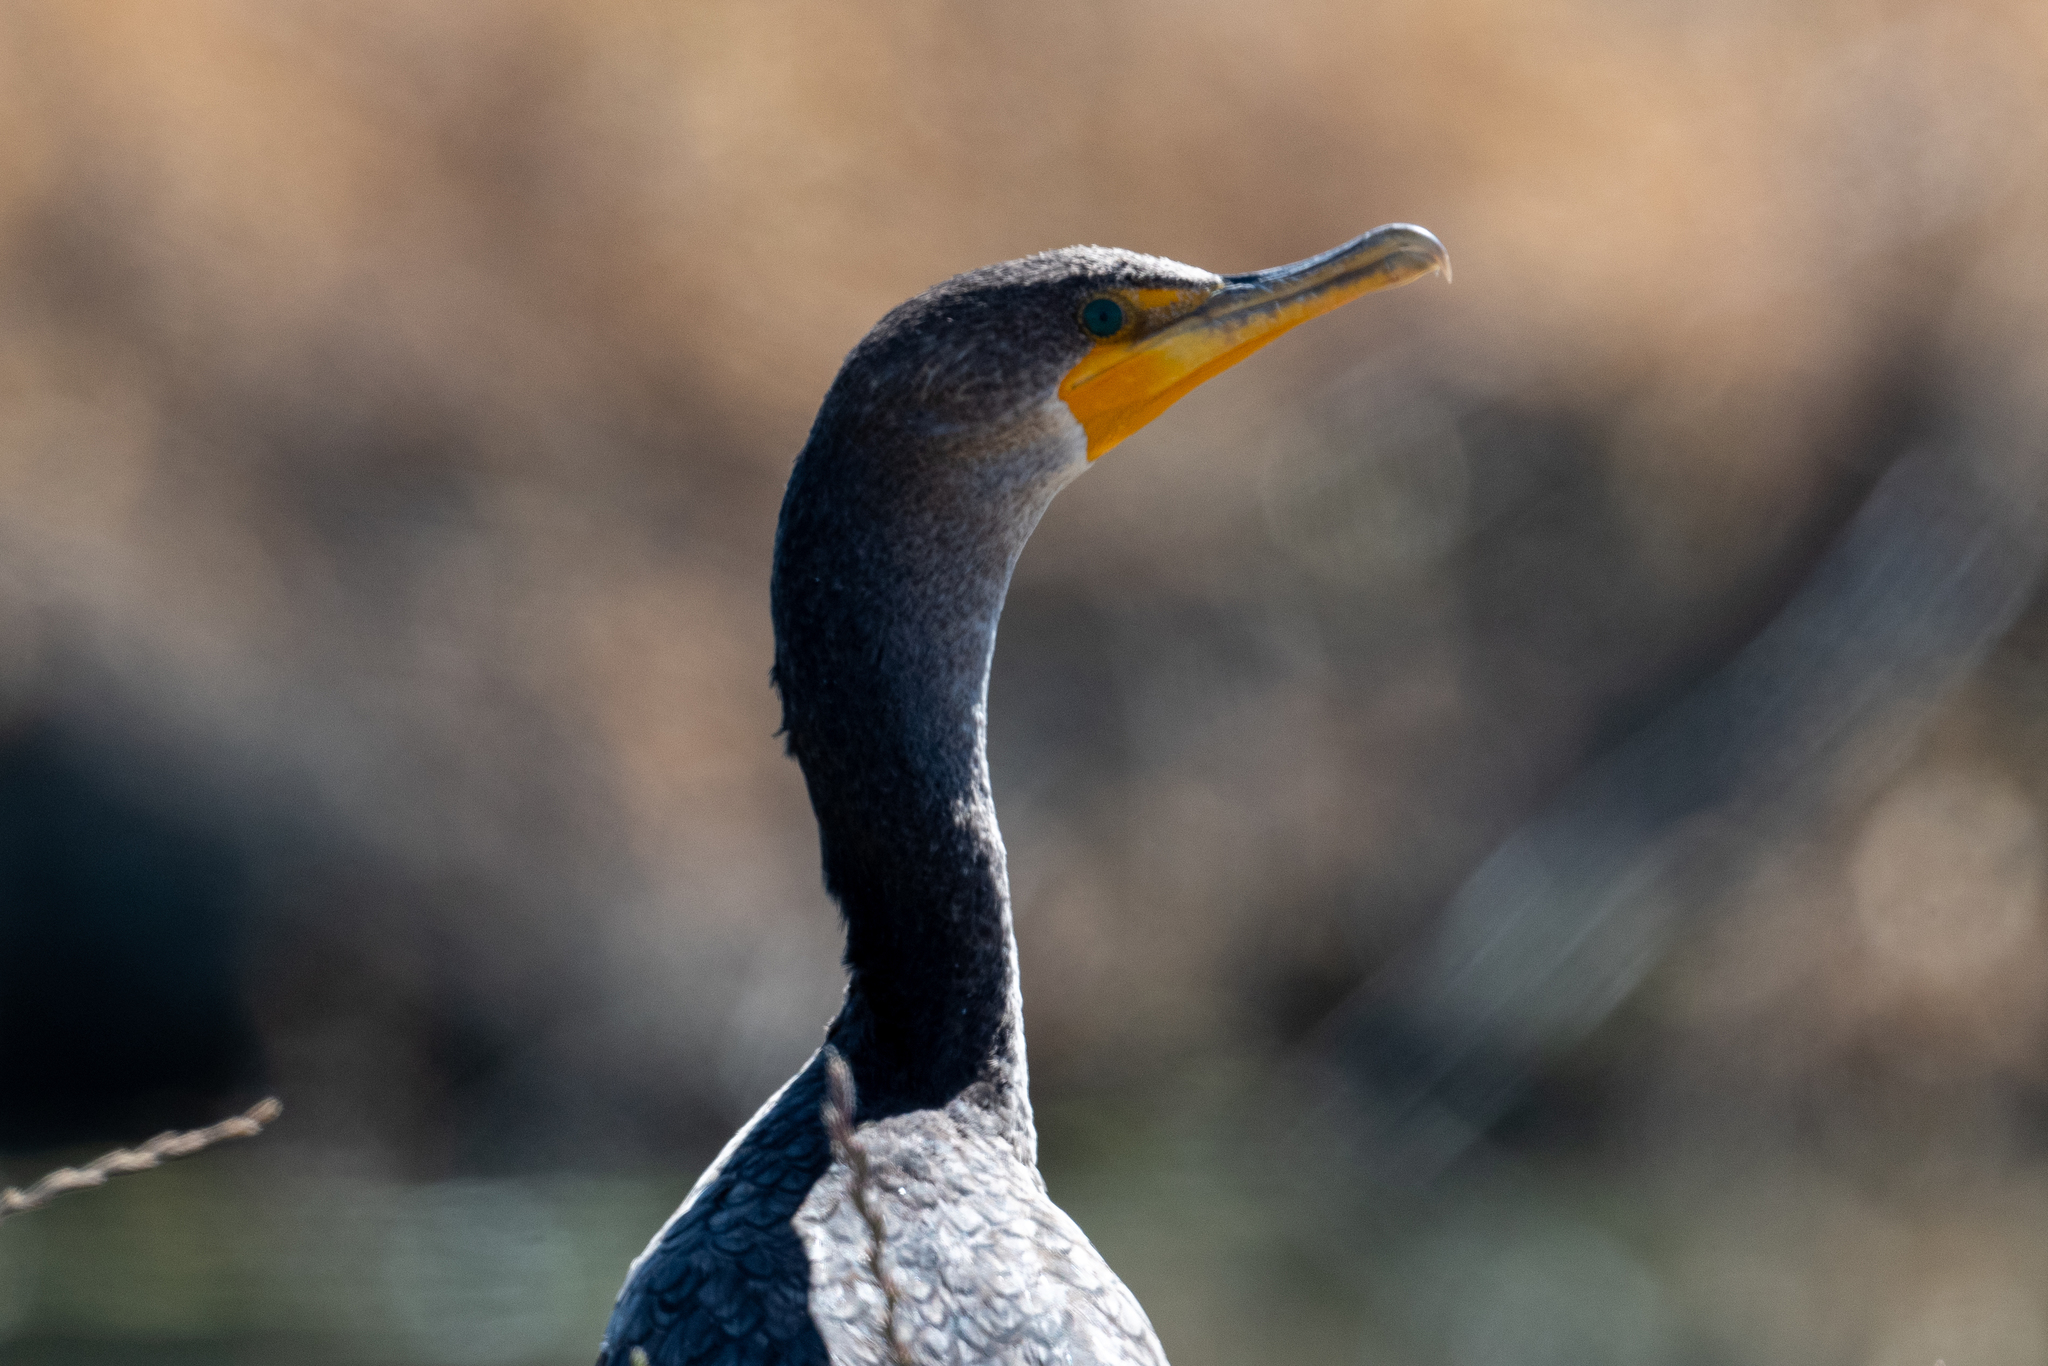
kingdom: Animalia
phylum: Chordata
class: Aves
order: Suliformes
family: Phalacrocoracidae
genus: Phalacrocorax
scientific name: Phalacrocorax auritus
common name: Double-crested cormorant
